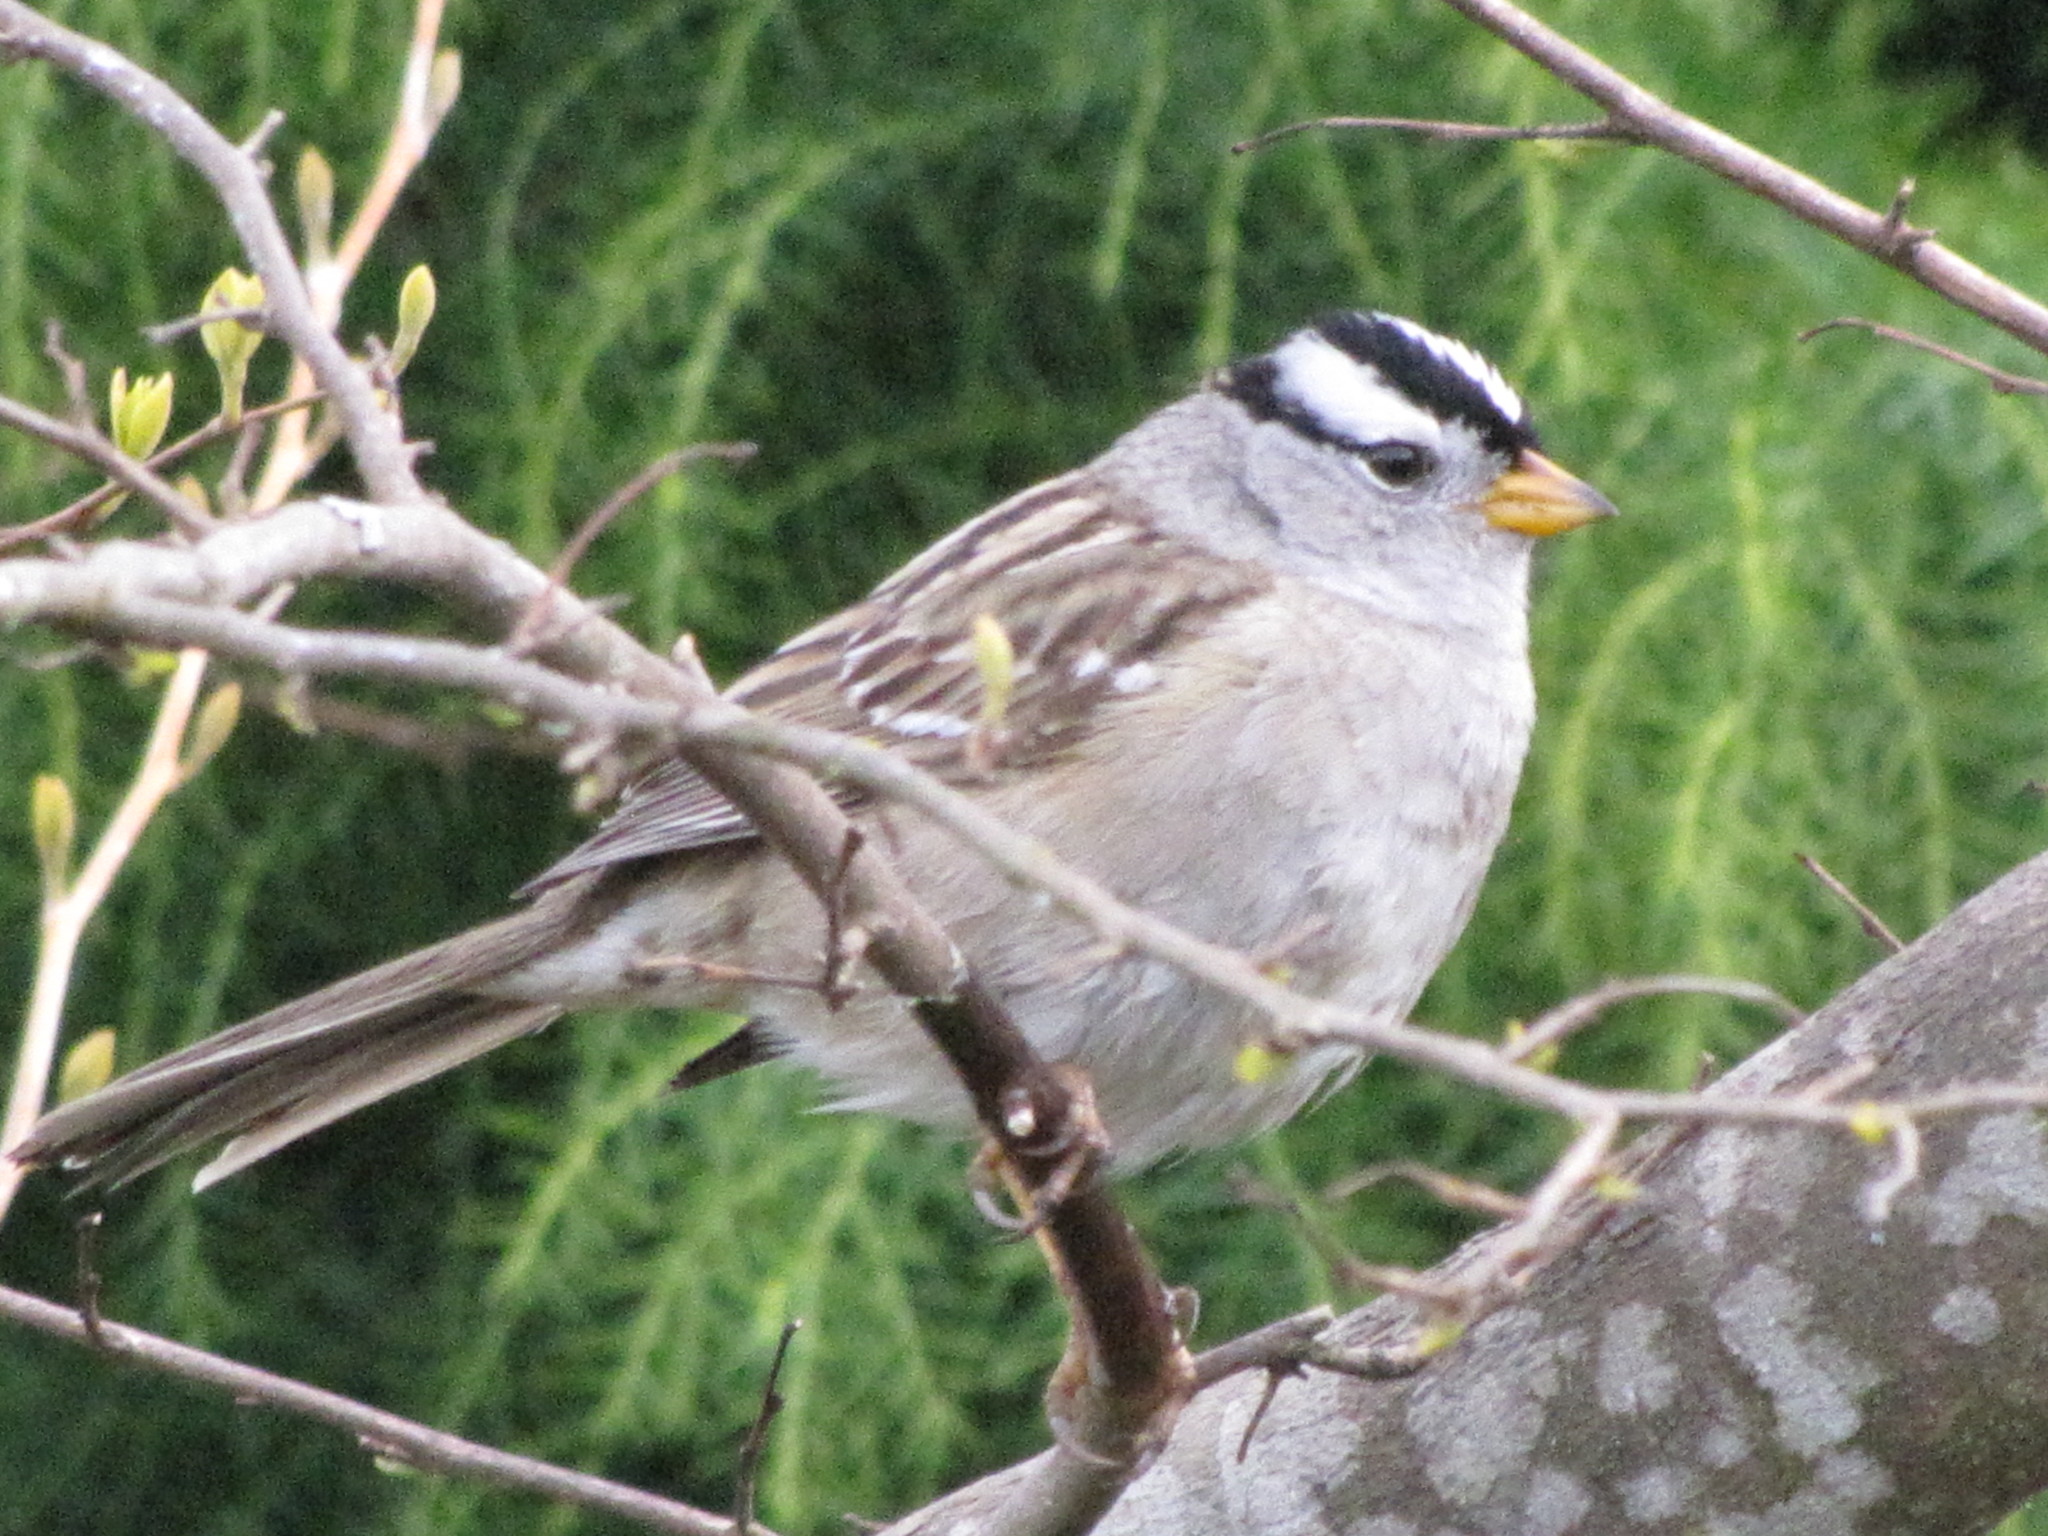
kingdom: Animalia
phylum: Chordata
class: Aves
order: Passeriformes
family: Passerellidae
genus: Zonotrichia
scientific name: Zonotrichia leucophrys
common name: White-crowned sparrow
